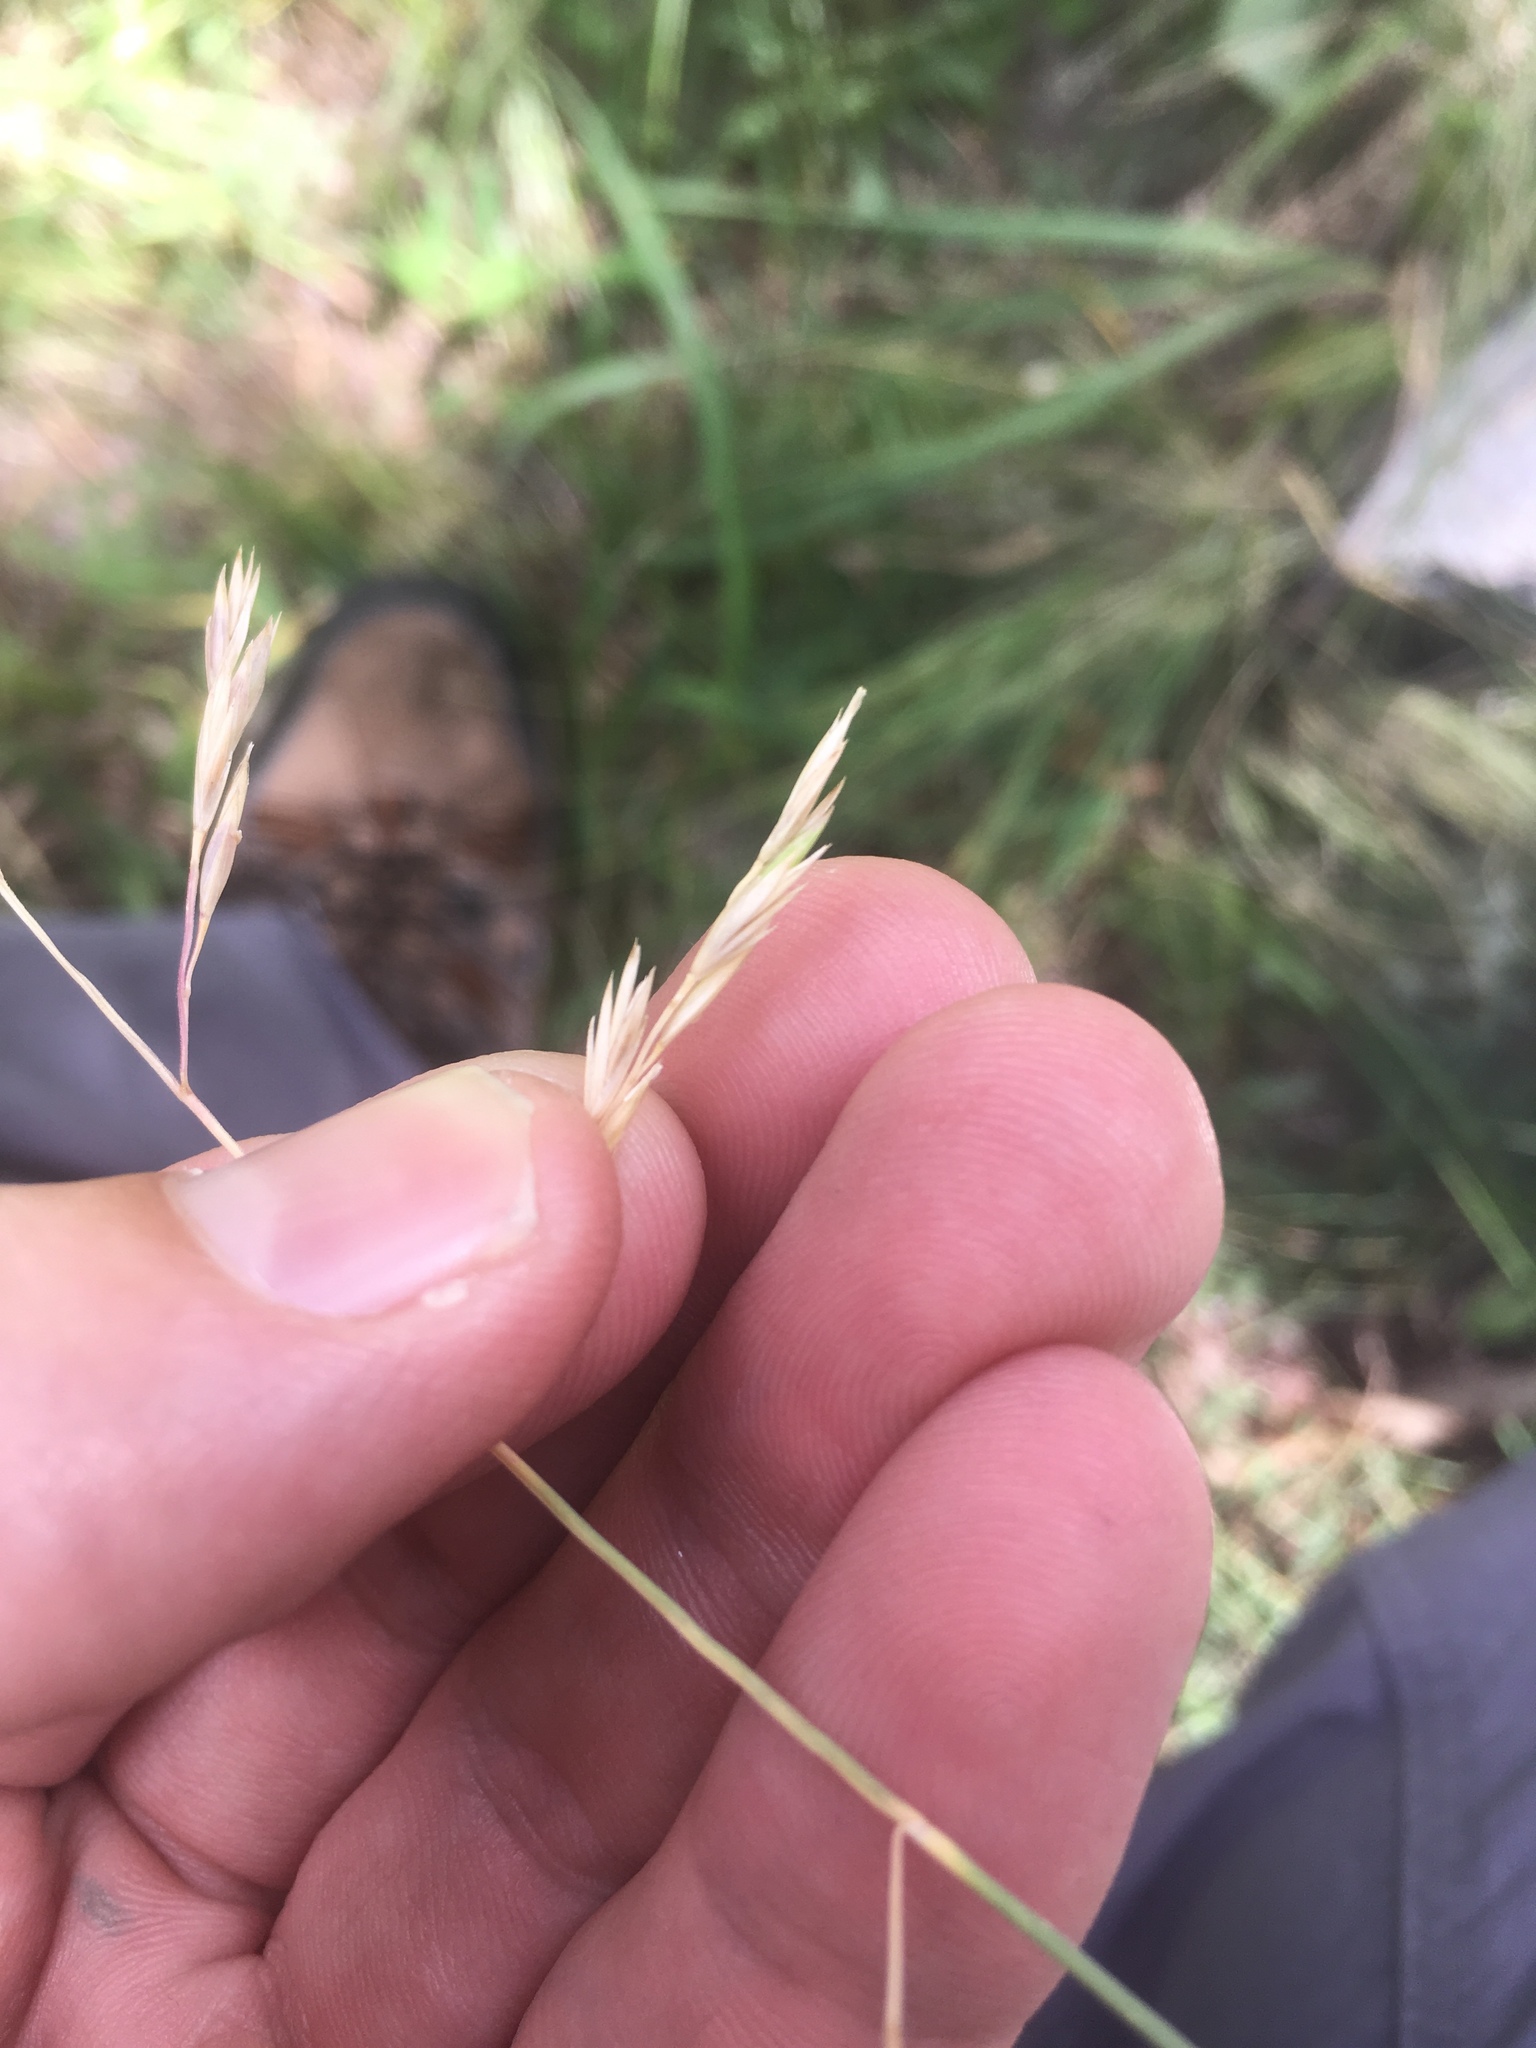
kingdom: Plantae
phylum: Tracheophyta
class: Liliopsida
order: Poales
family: Poaceae
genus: Festuca
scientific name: Festuca arizonica
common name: Pinegrass
